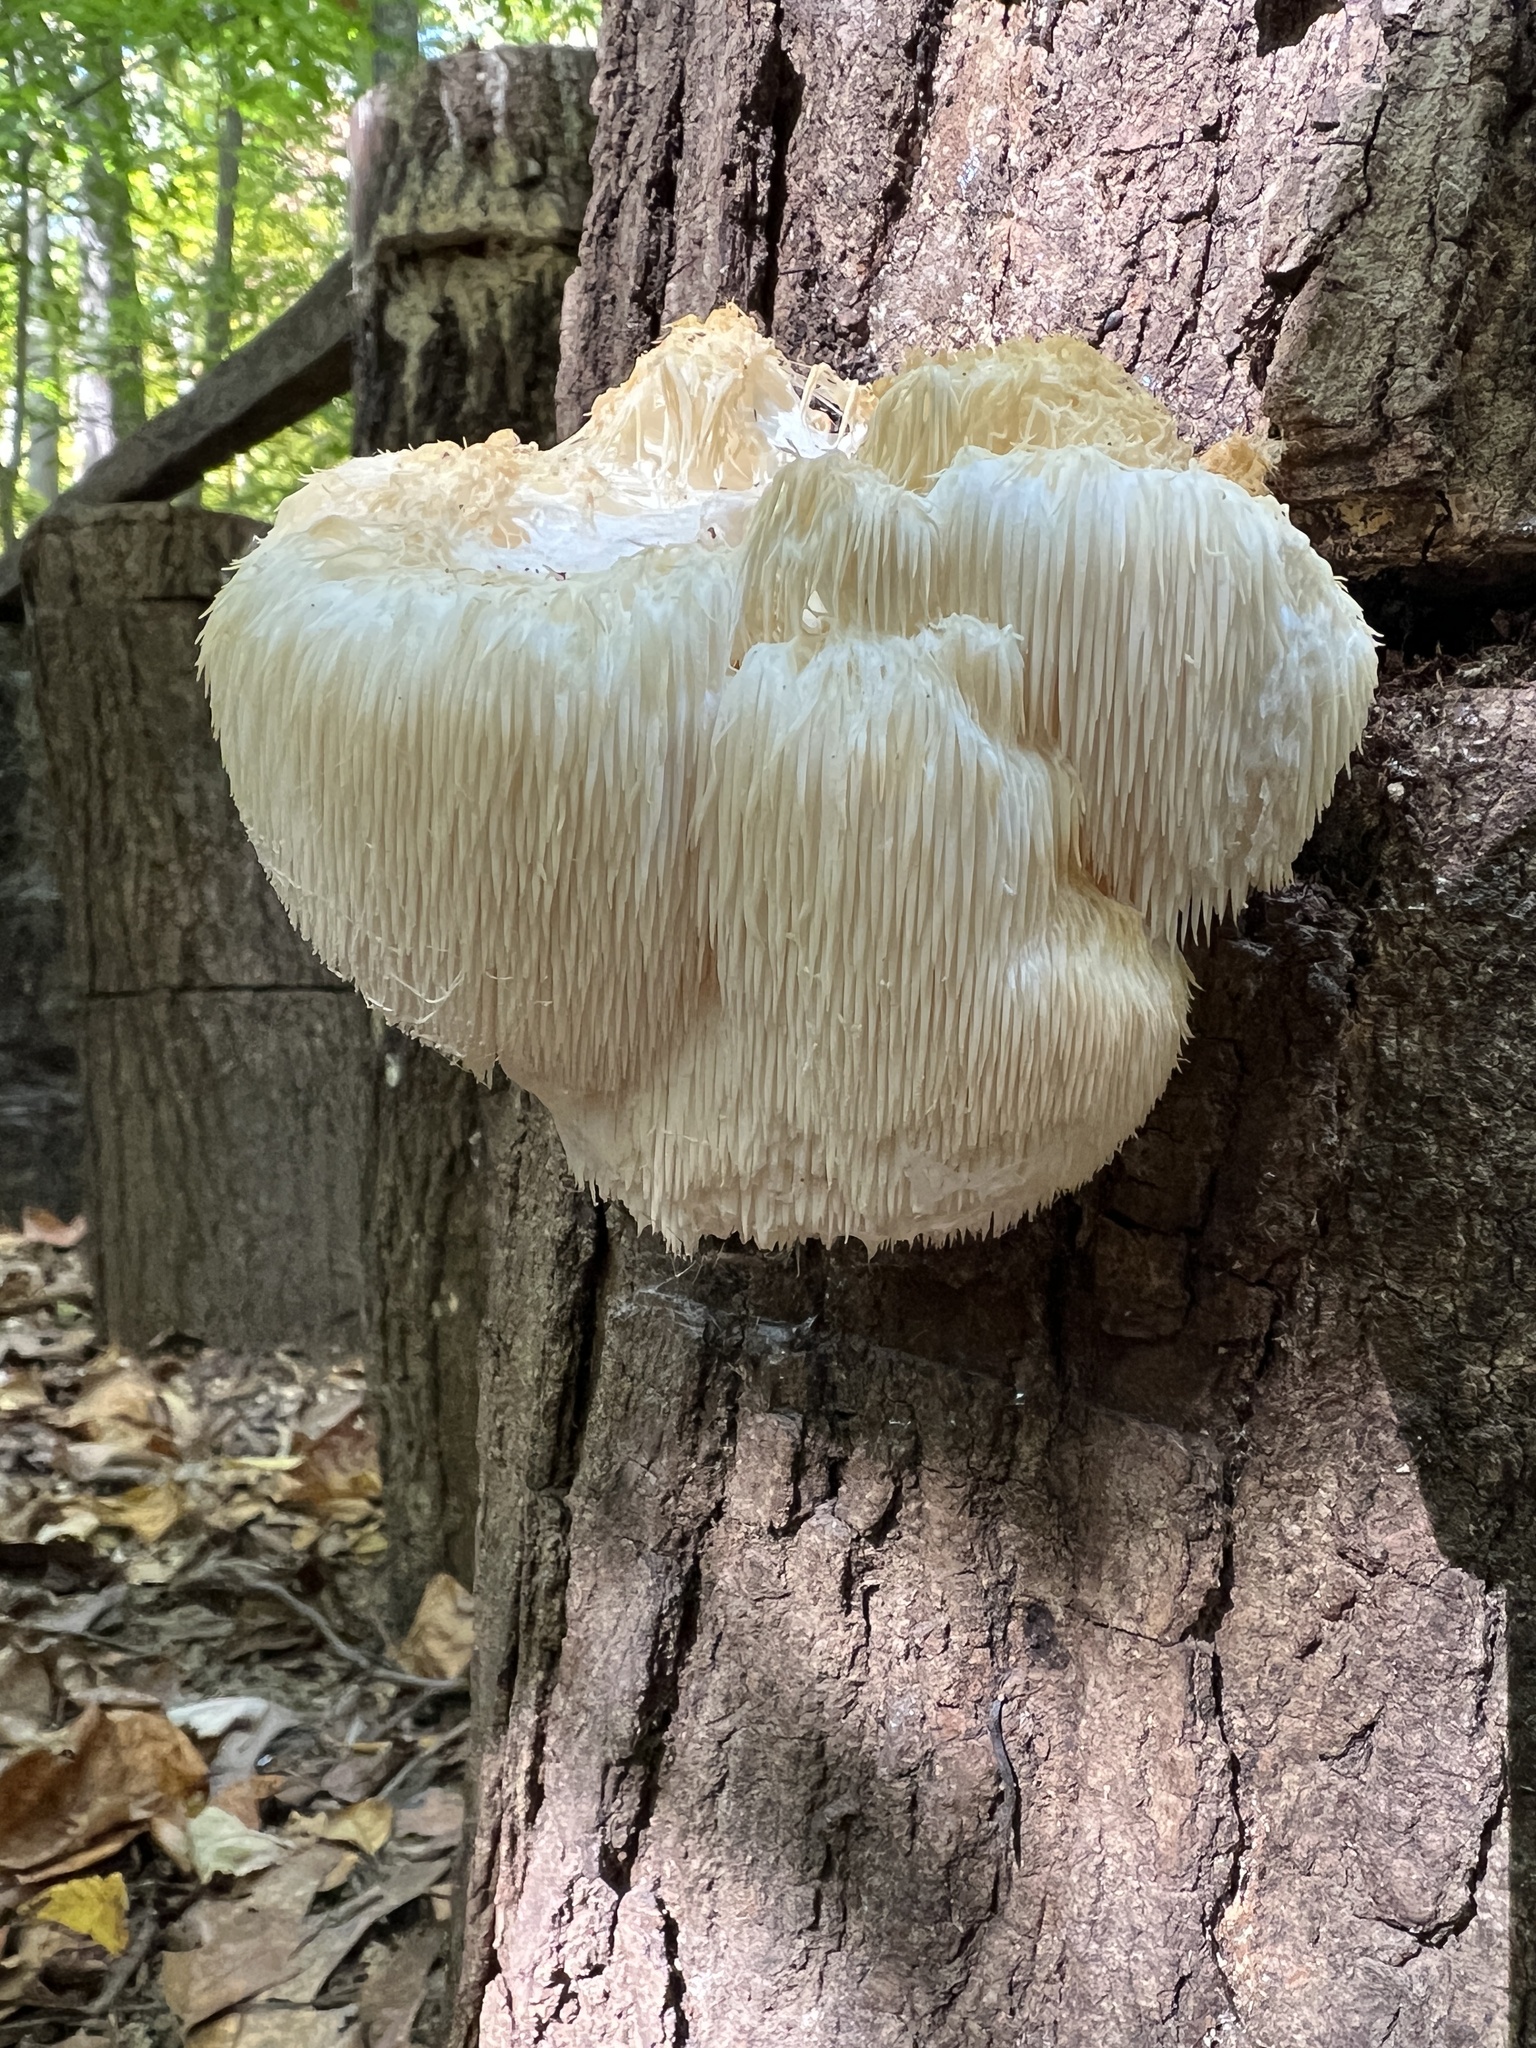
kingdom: Fungi
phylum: Basidiomycota
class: Agaricomycetes
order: Russulales
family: Hericiaceae
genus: Hericium
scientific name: Hericium erinaceus
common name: Bearded tooth
